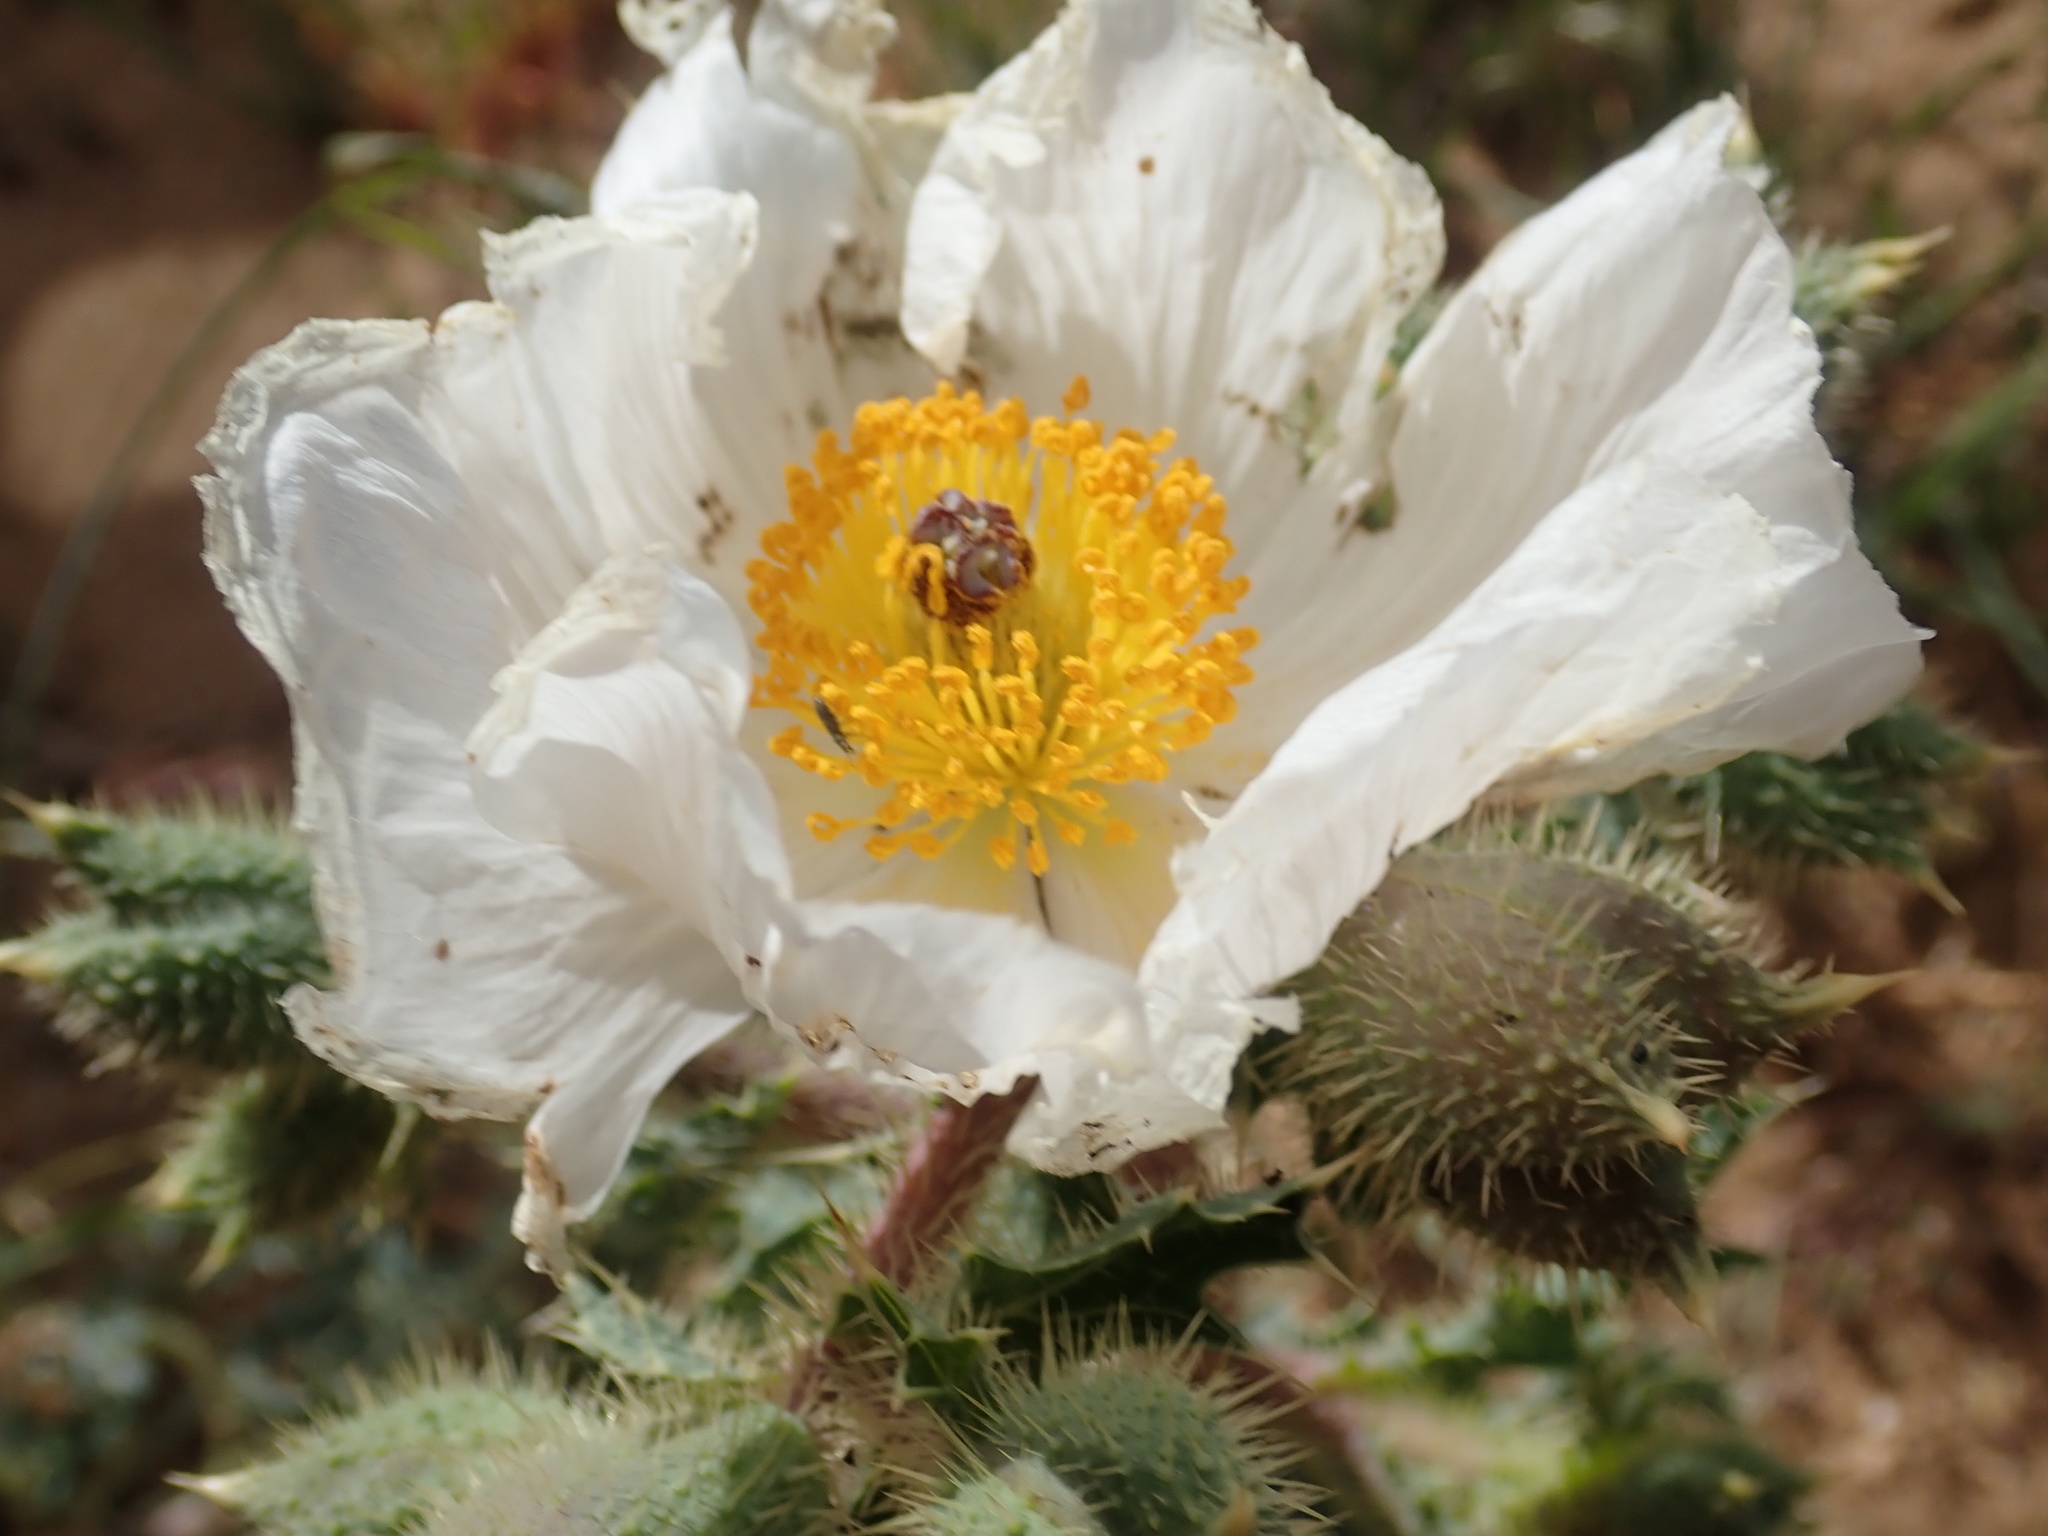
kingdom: Plantae
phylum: Tracheophyta
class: Magnoliopsida
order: Ranunculales
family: Papaveraceae
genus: Argemone
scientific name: Argemone munita
